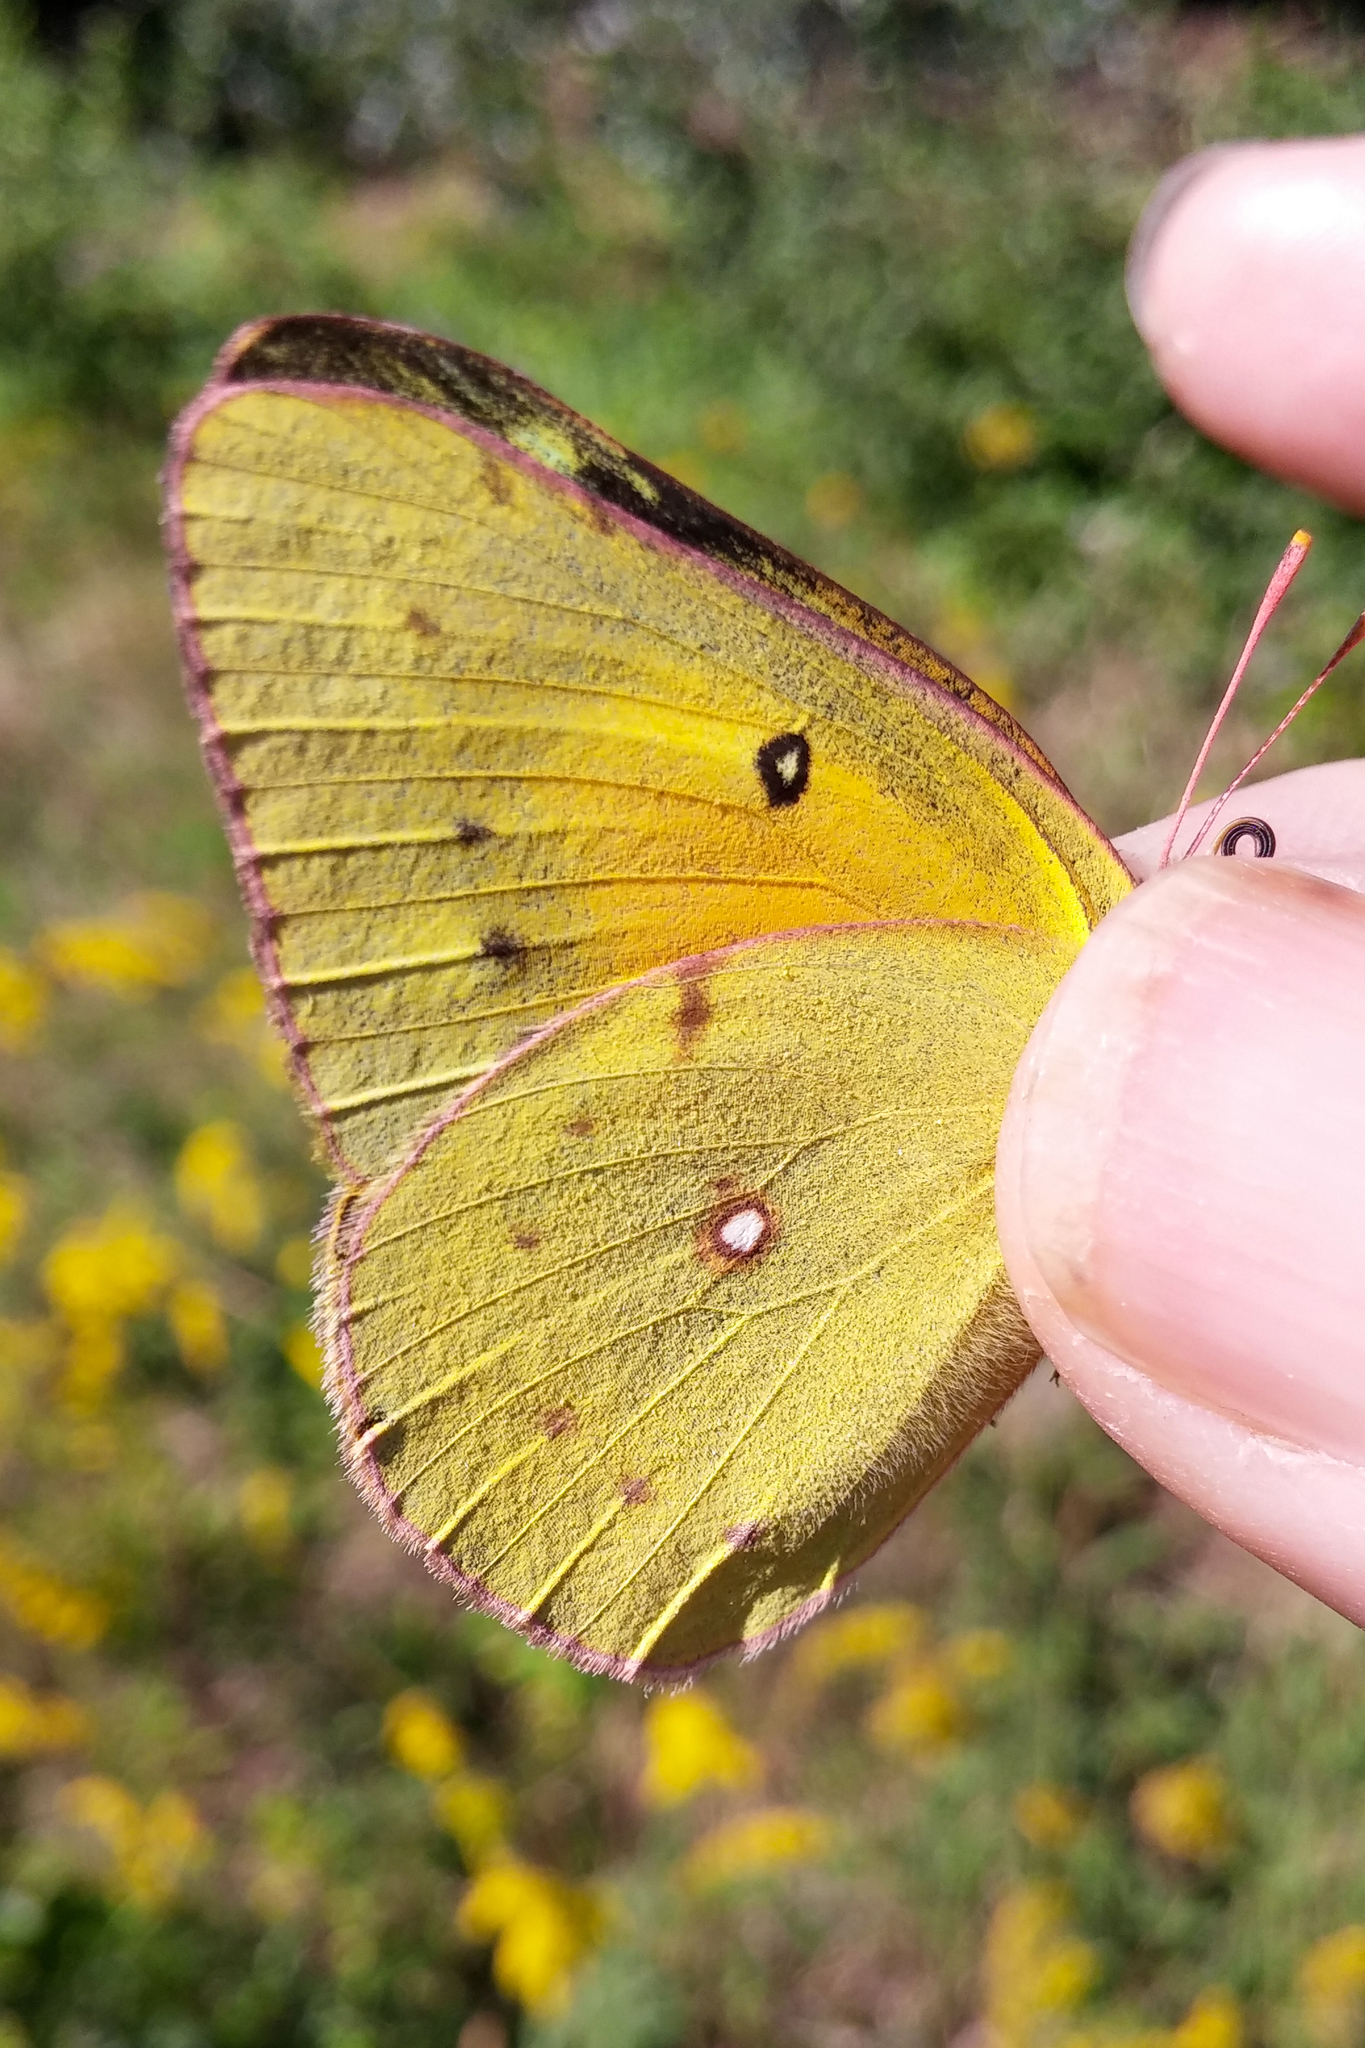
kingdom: Animalia
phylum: Arthropoda
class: Insecta
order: Lepidoptera
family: Pieridae
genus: Colias
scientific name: Colias eurytheme
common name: Alfalfa butterfly
